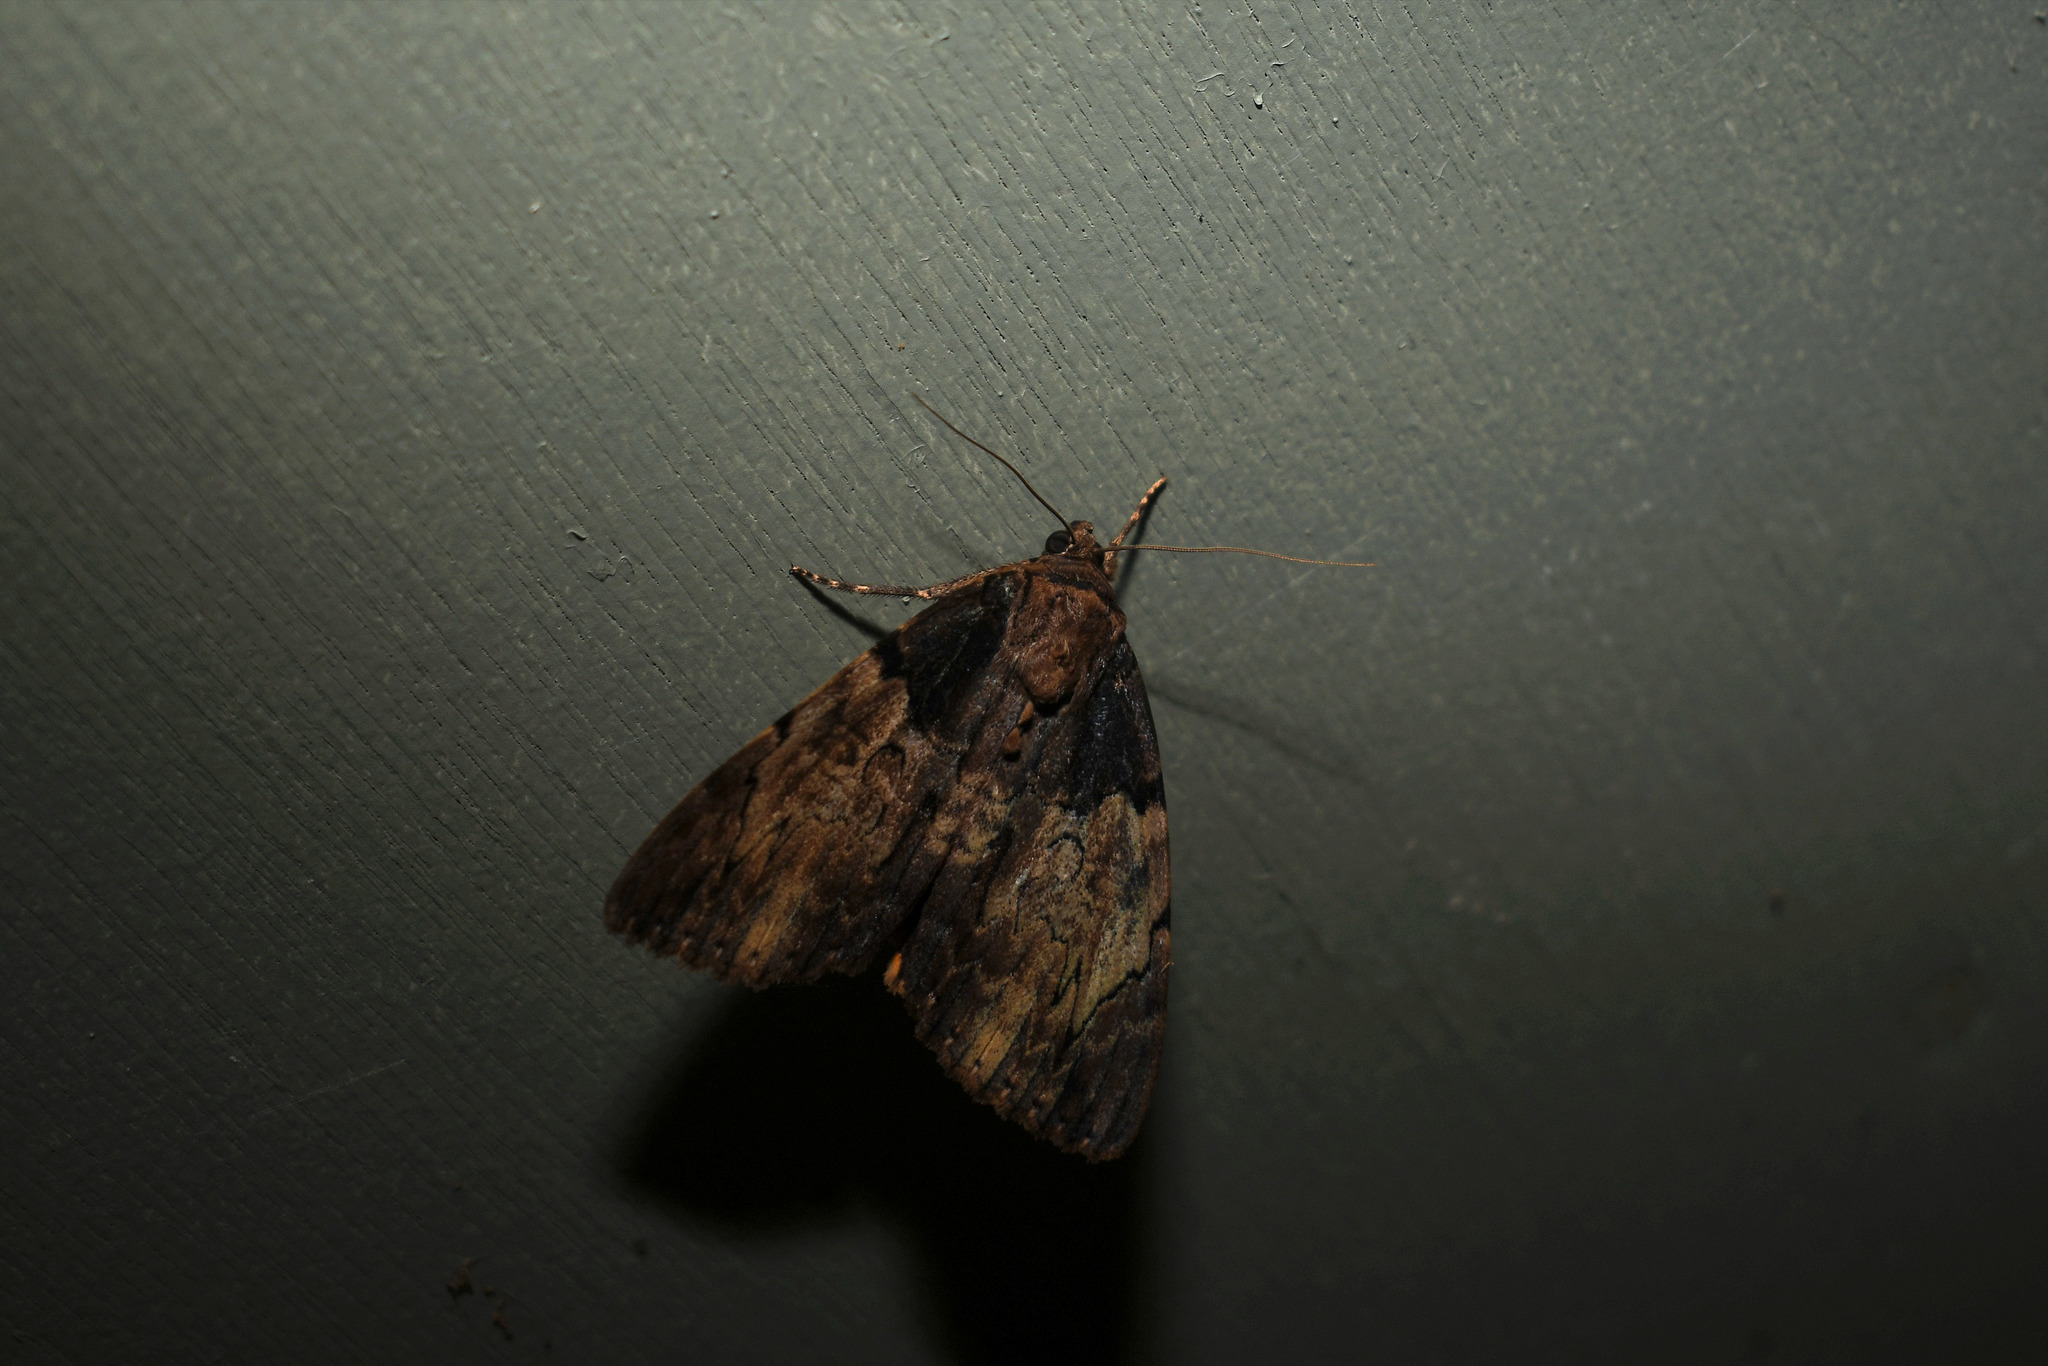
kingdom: Animalia
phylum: Arthropoda
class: Insecta
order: Lepidoptera
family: Erebidae
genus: Catocala
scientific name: Catocala nebulosa
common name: Clouded underwing
